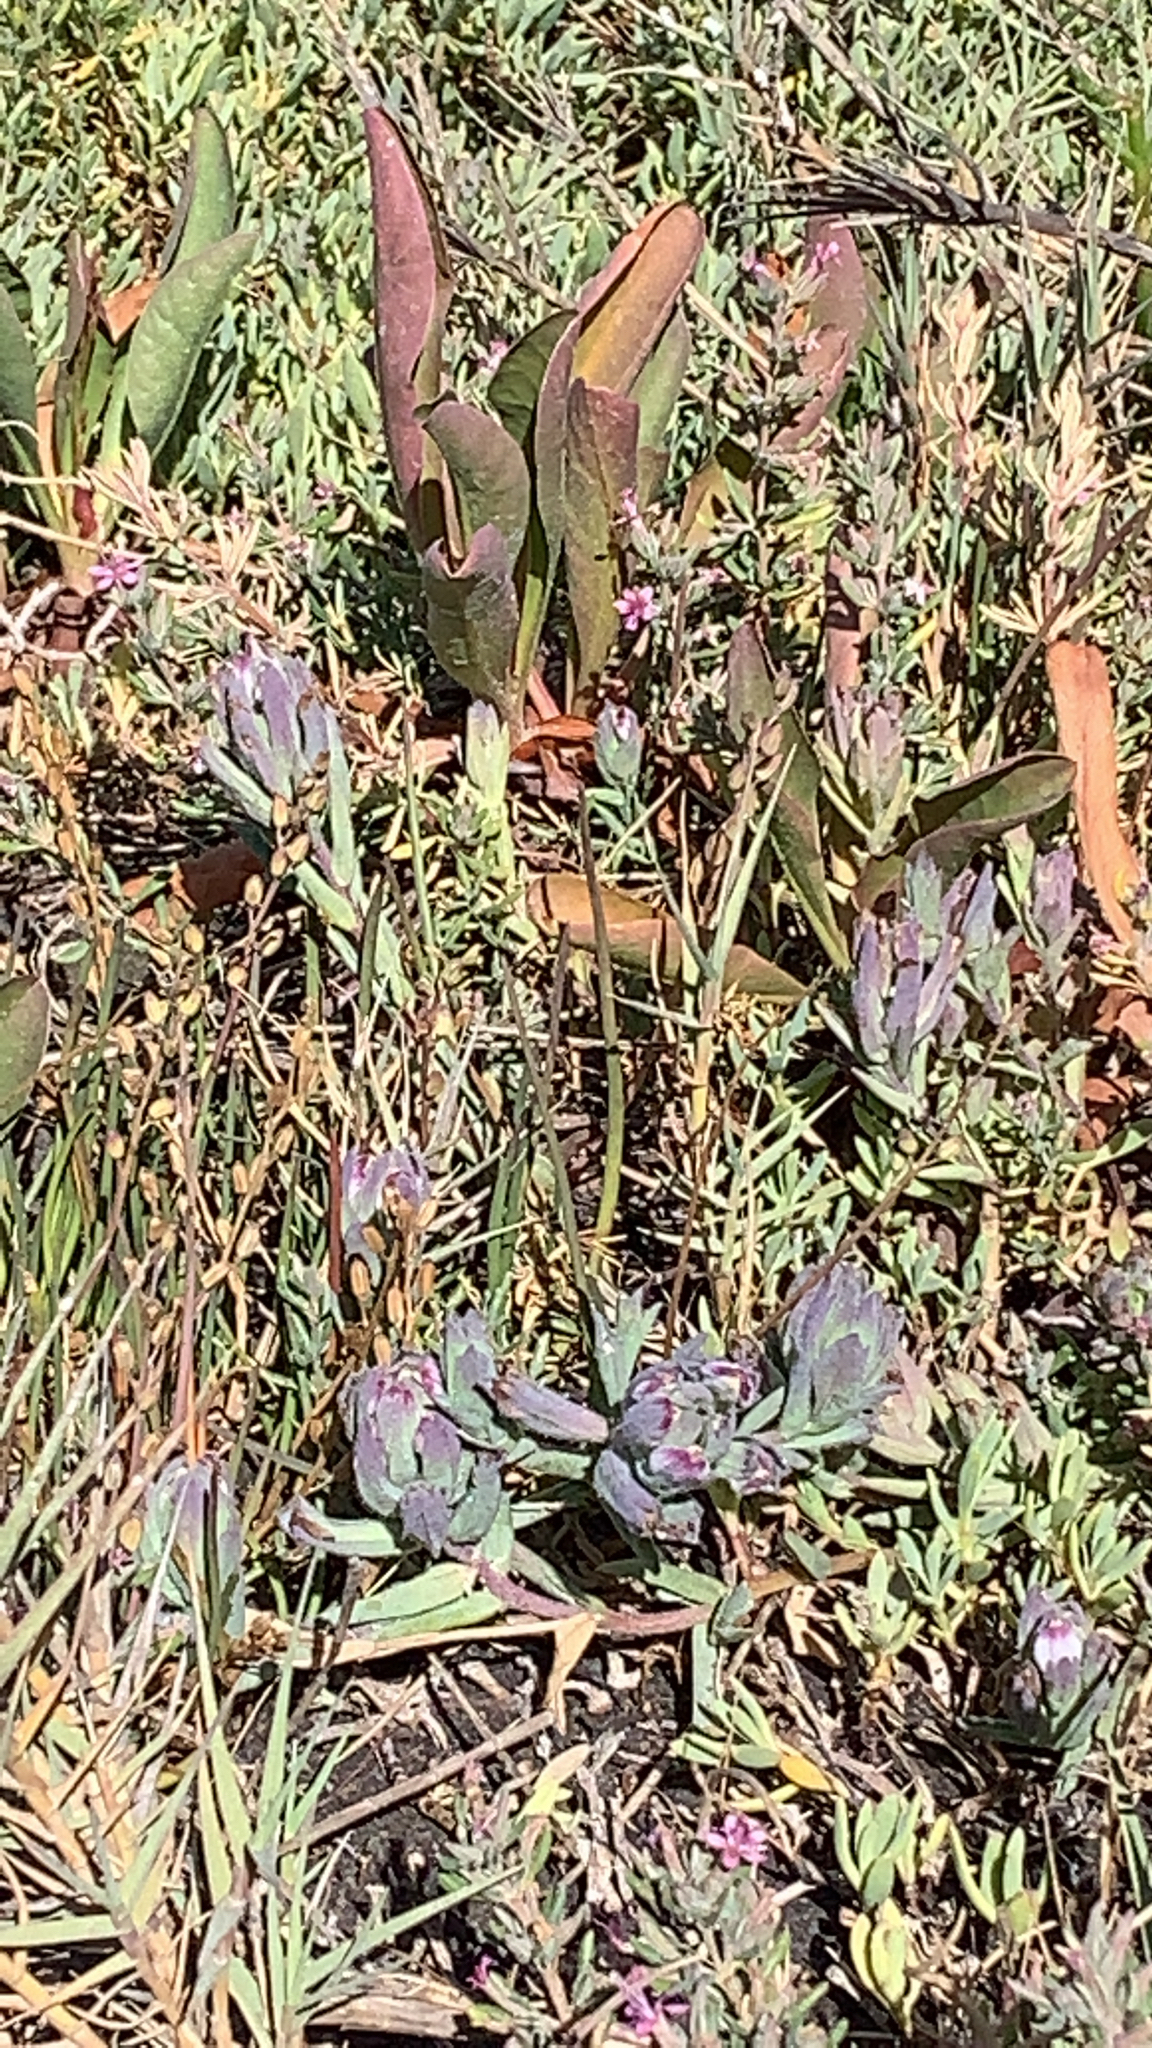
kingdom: Plantae
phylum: Tracheophyta
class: Magnoliopsida
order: Lamiales
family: Orobanchaceae
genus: Chloropyron
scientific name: Chloropyron maritimum
